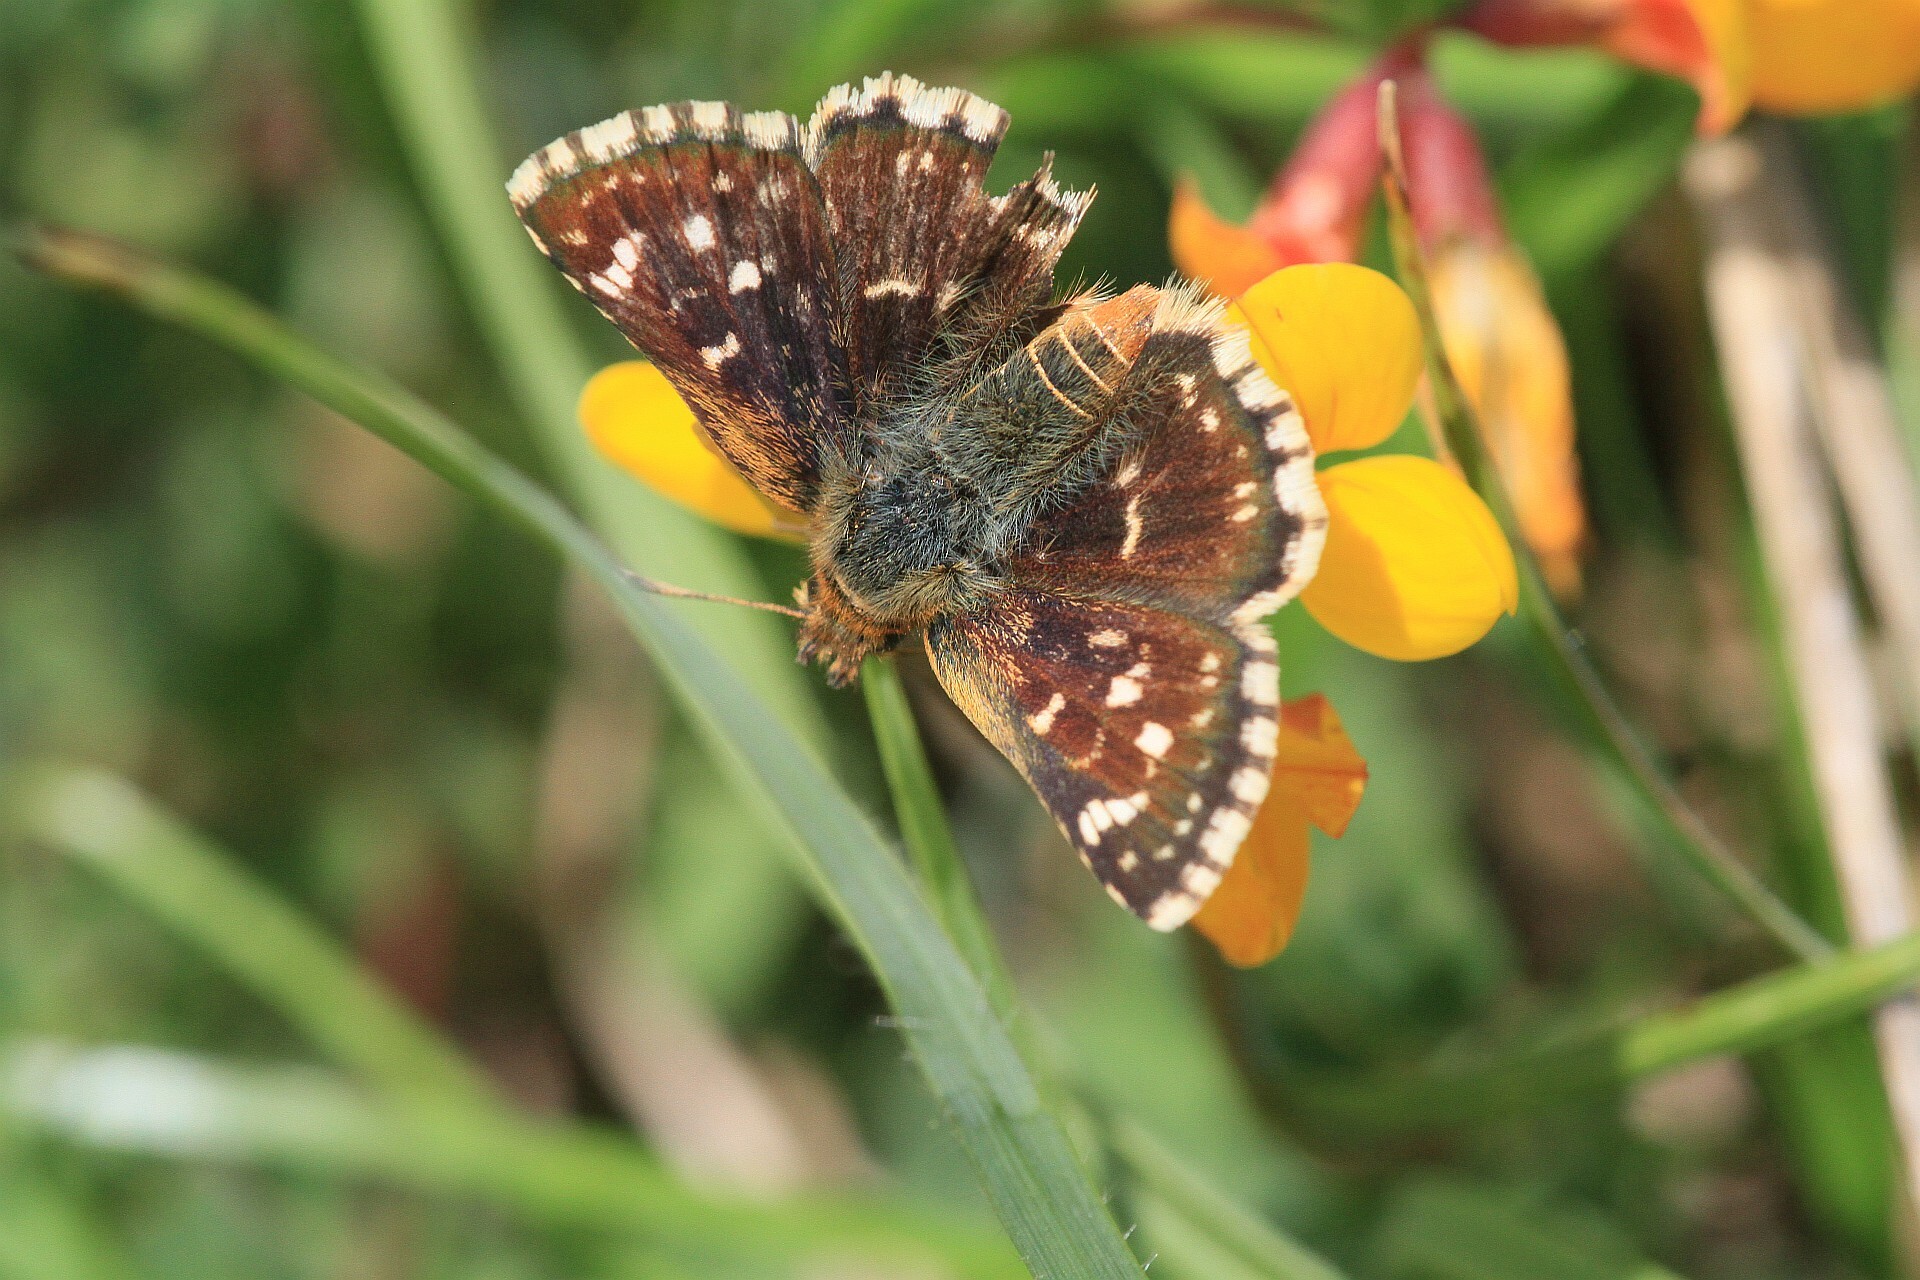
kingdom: Animalia
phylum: Arthropoda
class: Insecta
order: Lepidoptera
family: Hesperiidae
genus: Spialia
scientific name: Spialia sertorius
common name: Red underwing skipper
